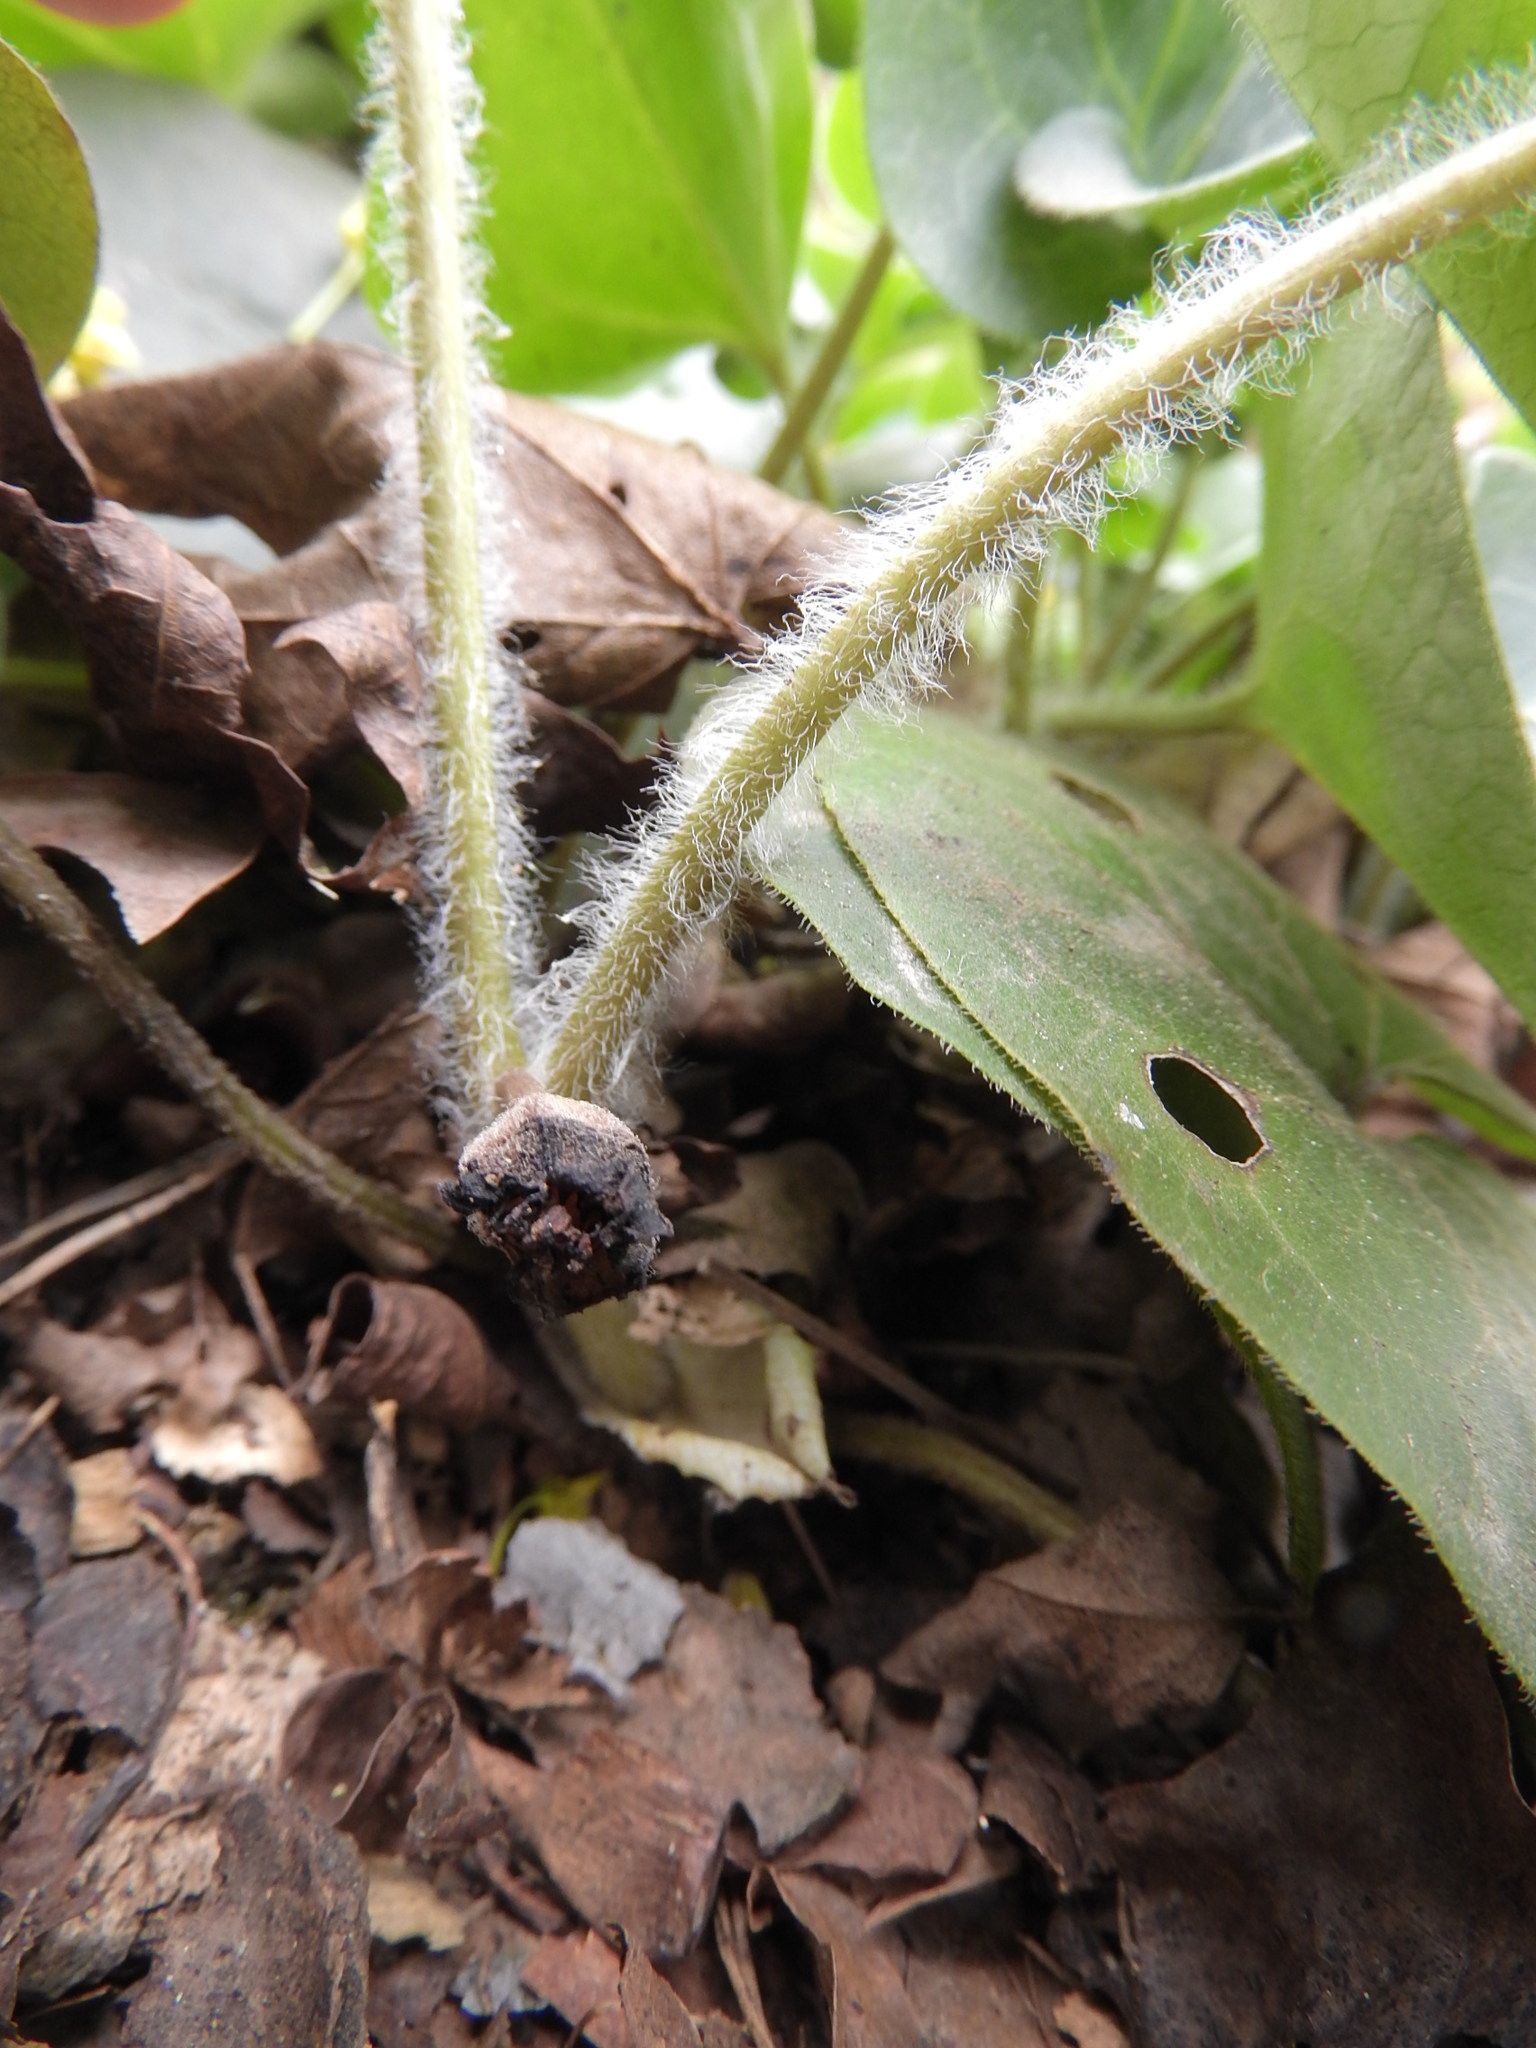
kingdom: Plantae
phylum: Tracheophyta
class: Magnoliopsida
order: Piperales
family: Aristolochiaceae
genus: Asarum
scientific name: Asarum europaeum
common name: Asarabacca
